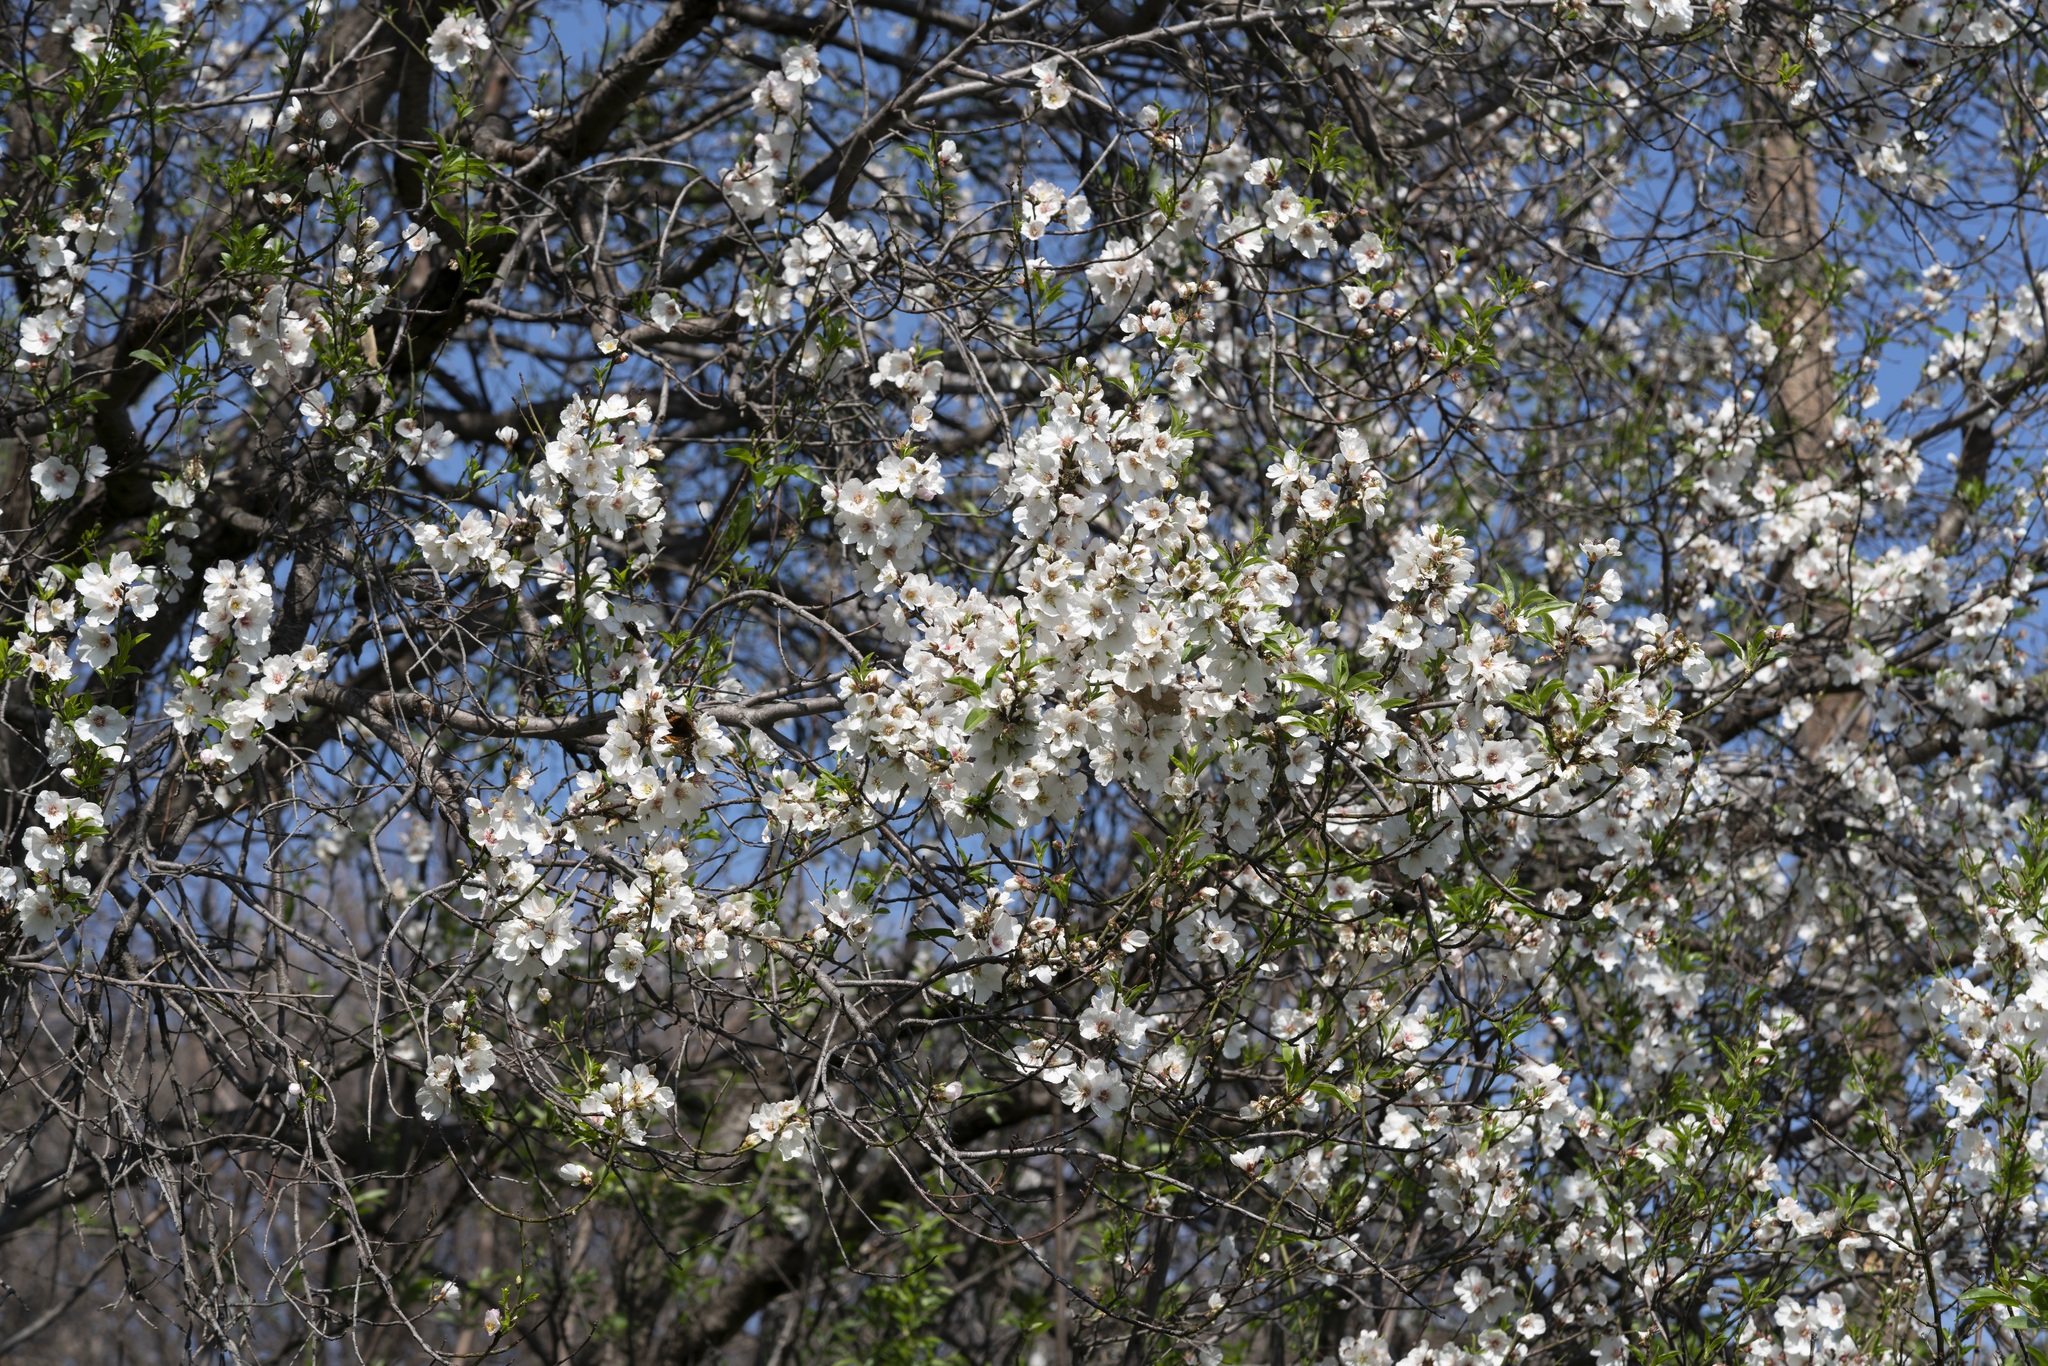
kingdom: Plantae
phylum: Tracheophyta
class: Magnoliopsida
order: Rosales
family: Rosaceae
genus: Prunus
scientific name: Prunus amygdalus
